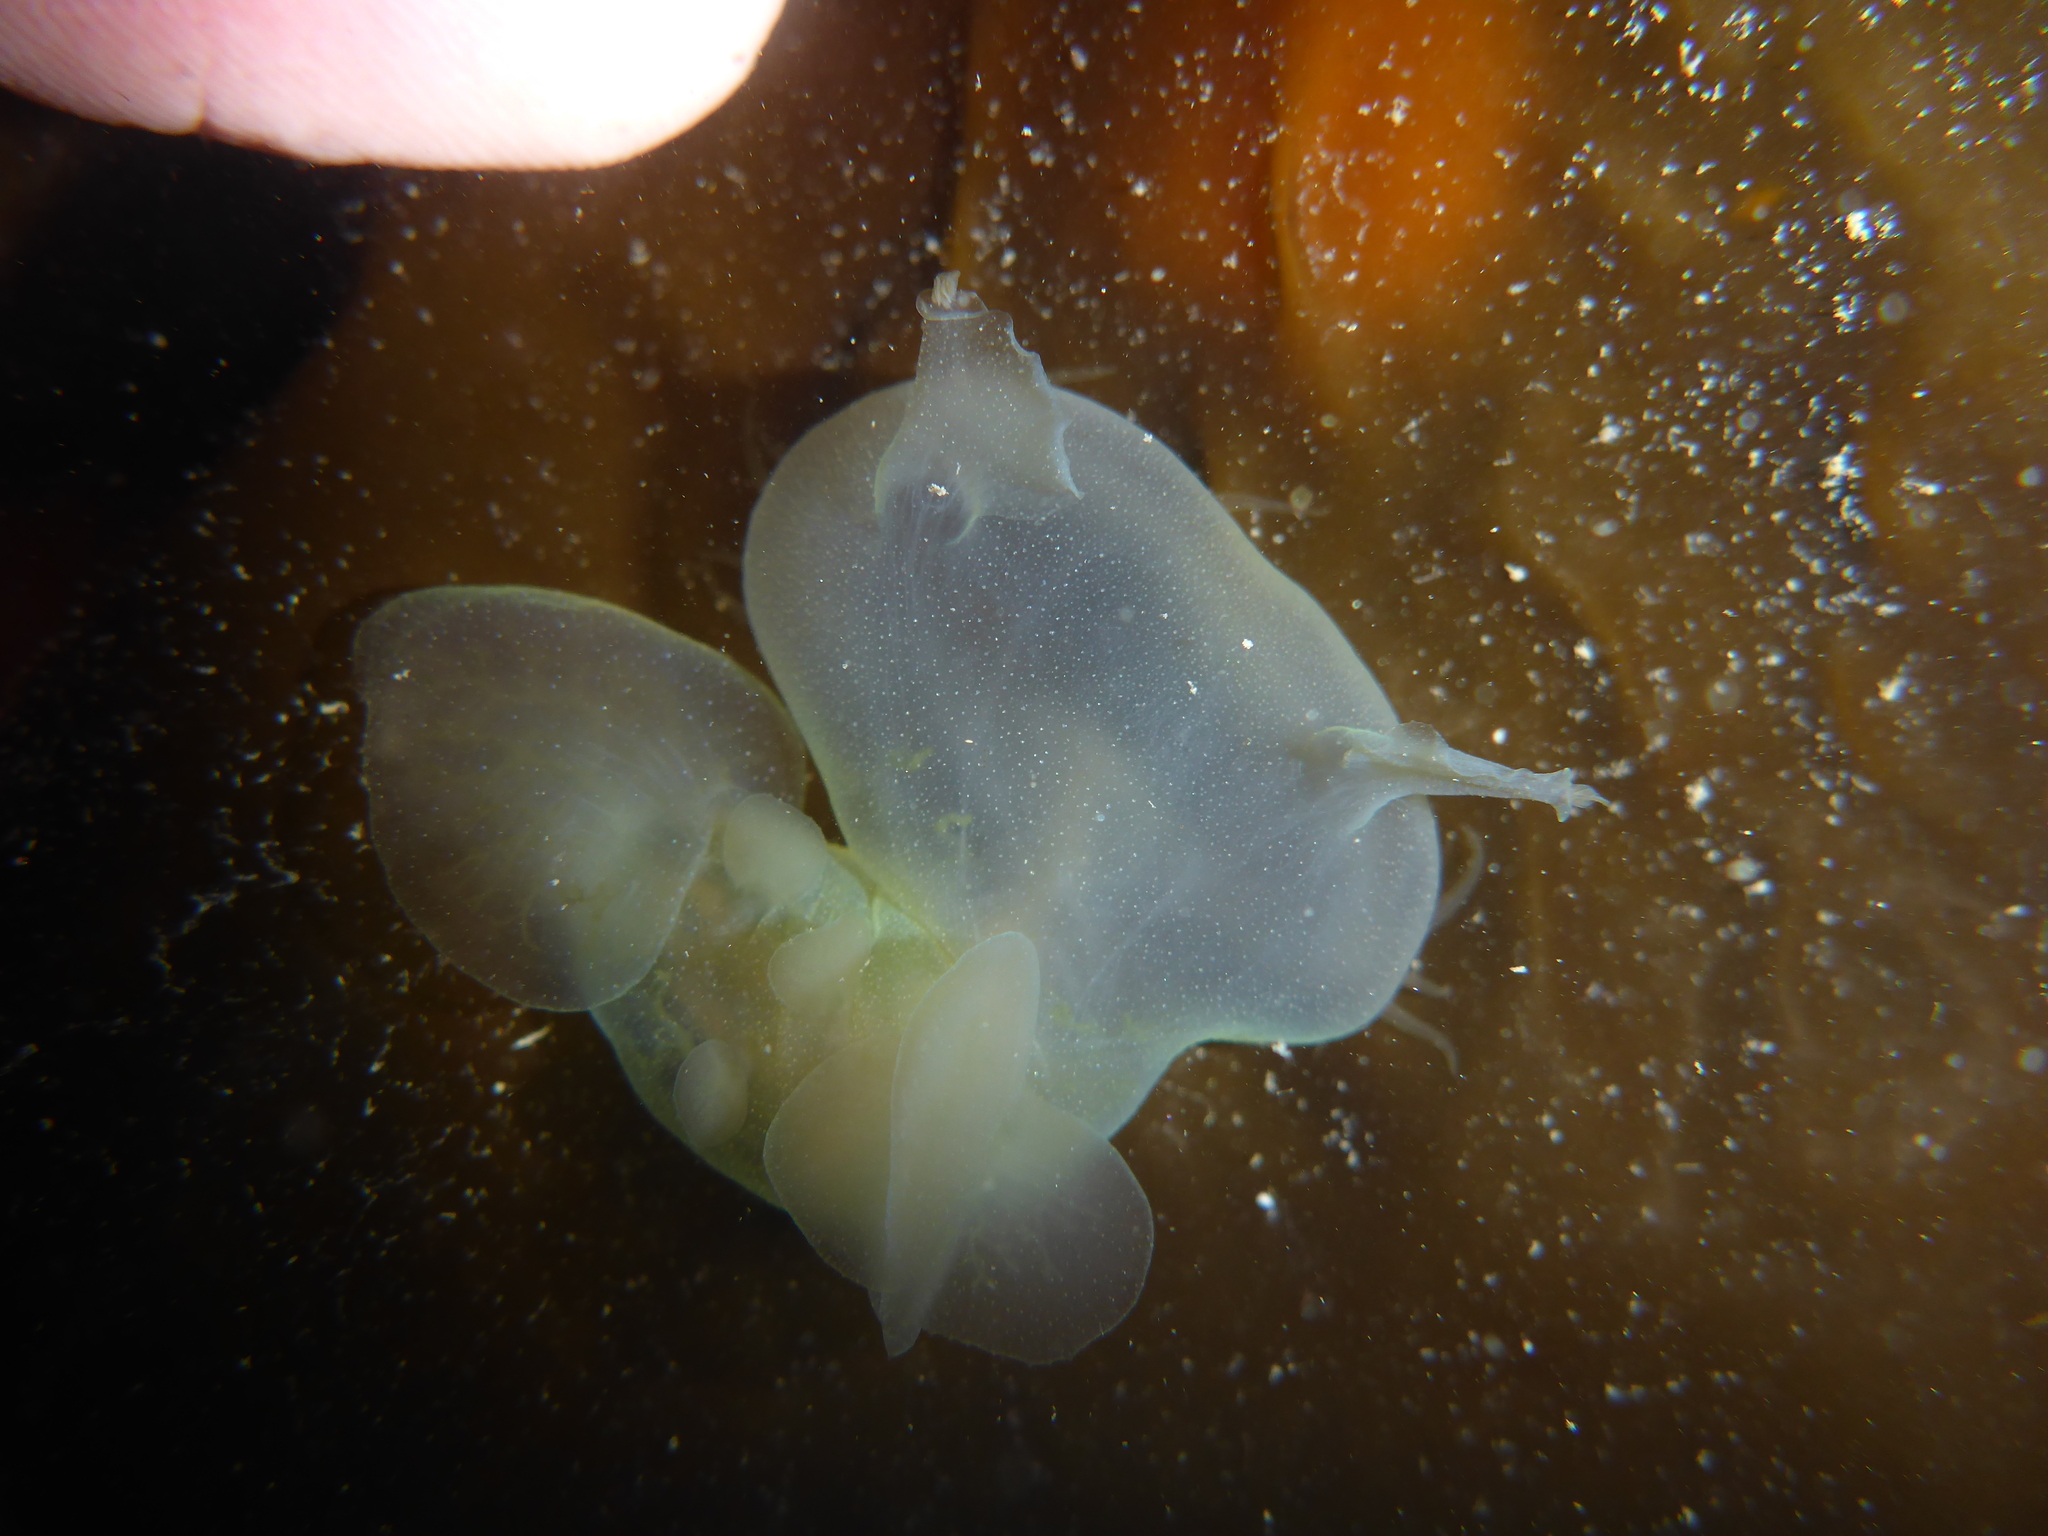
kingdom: Animalia
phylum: Mollusca
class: Gastropoda
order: Nudibranchia
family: Tethydidae
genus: Melibe
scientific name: Melibe leonina
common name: Lion nudibranch
